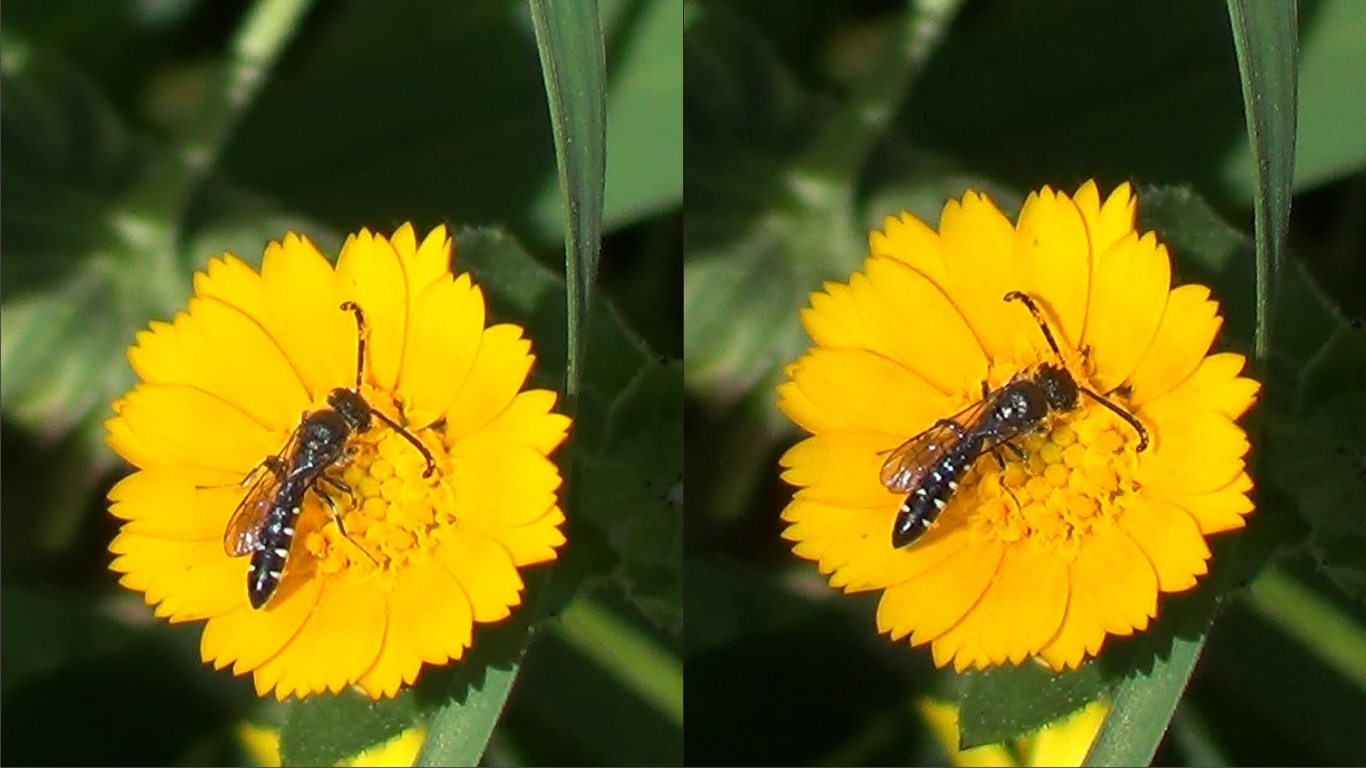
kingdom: Animalia
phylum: Arthropoda
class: Insecta
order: Hymenoptera
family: Sapygidae
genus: Sapyga
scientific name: Sapyga quinquepunctata
